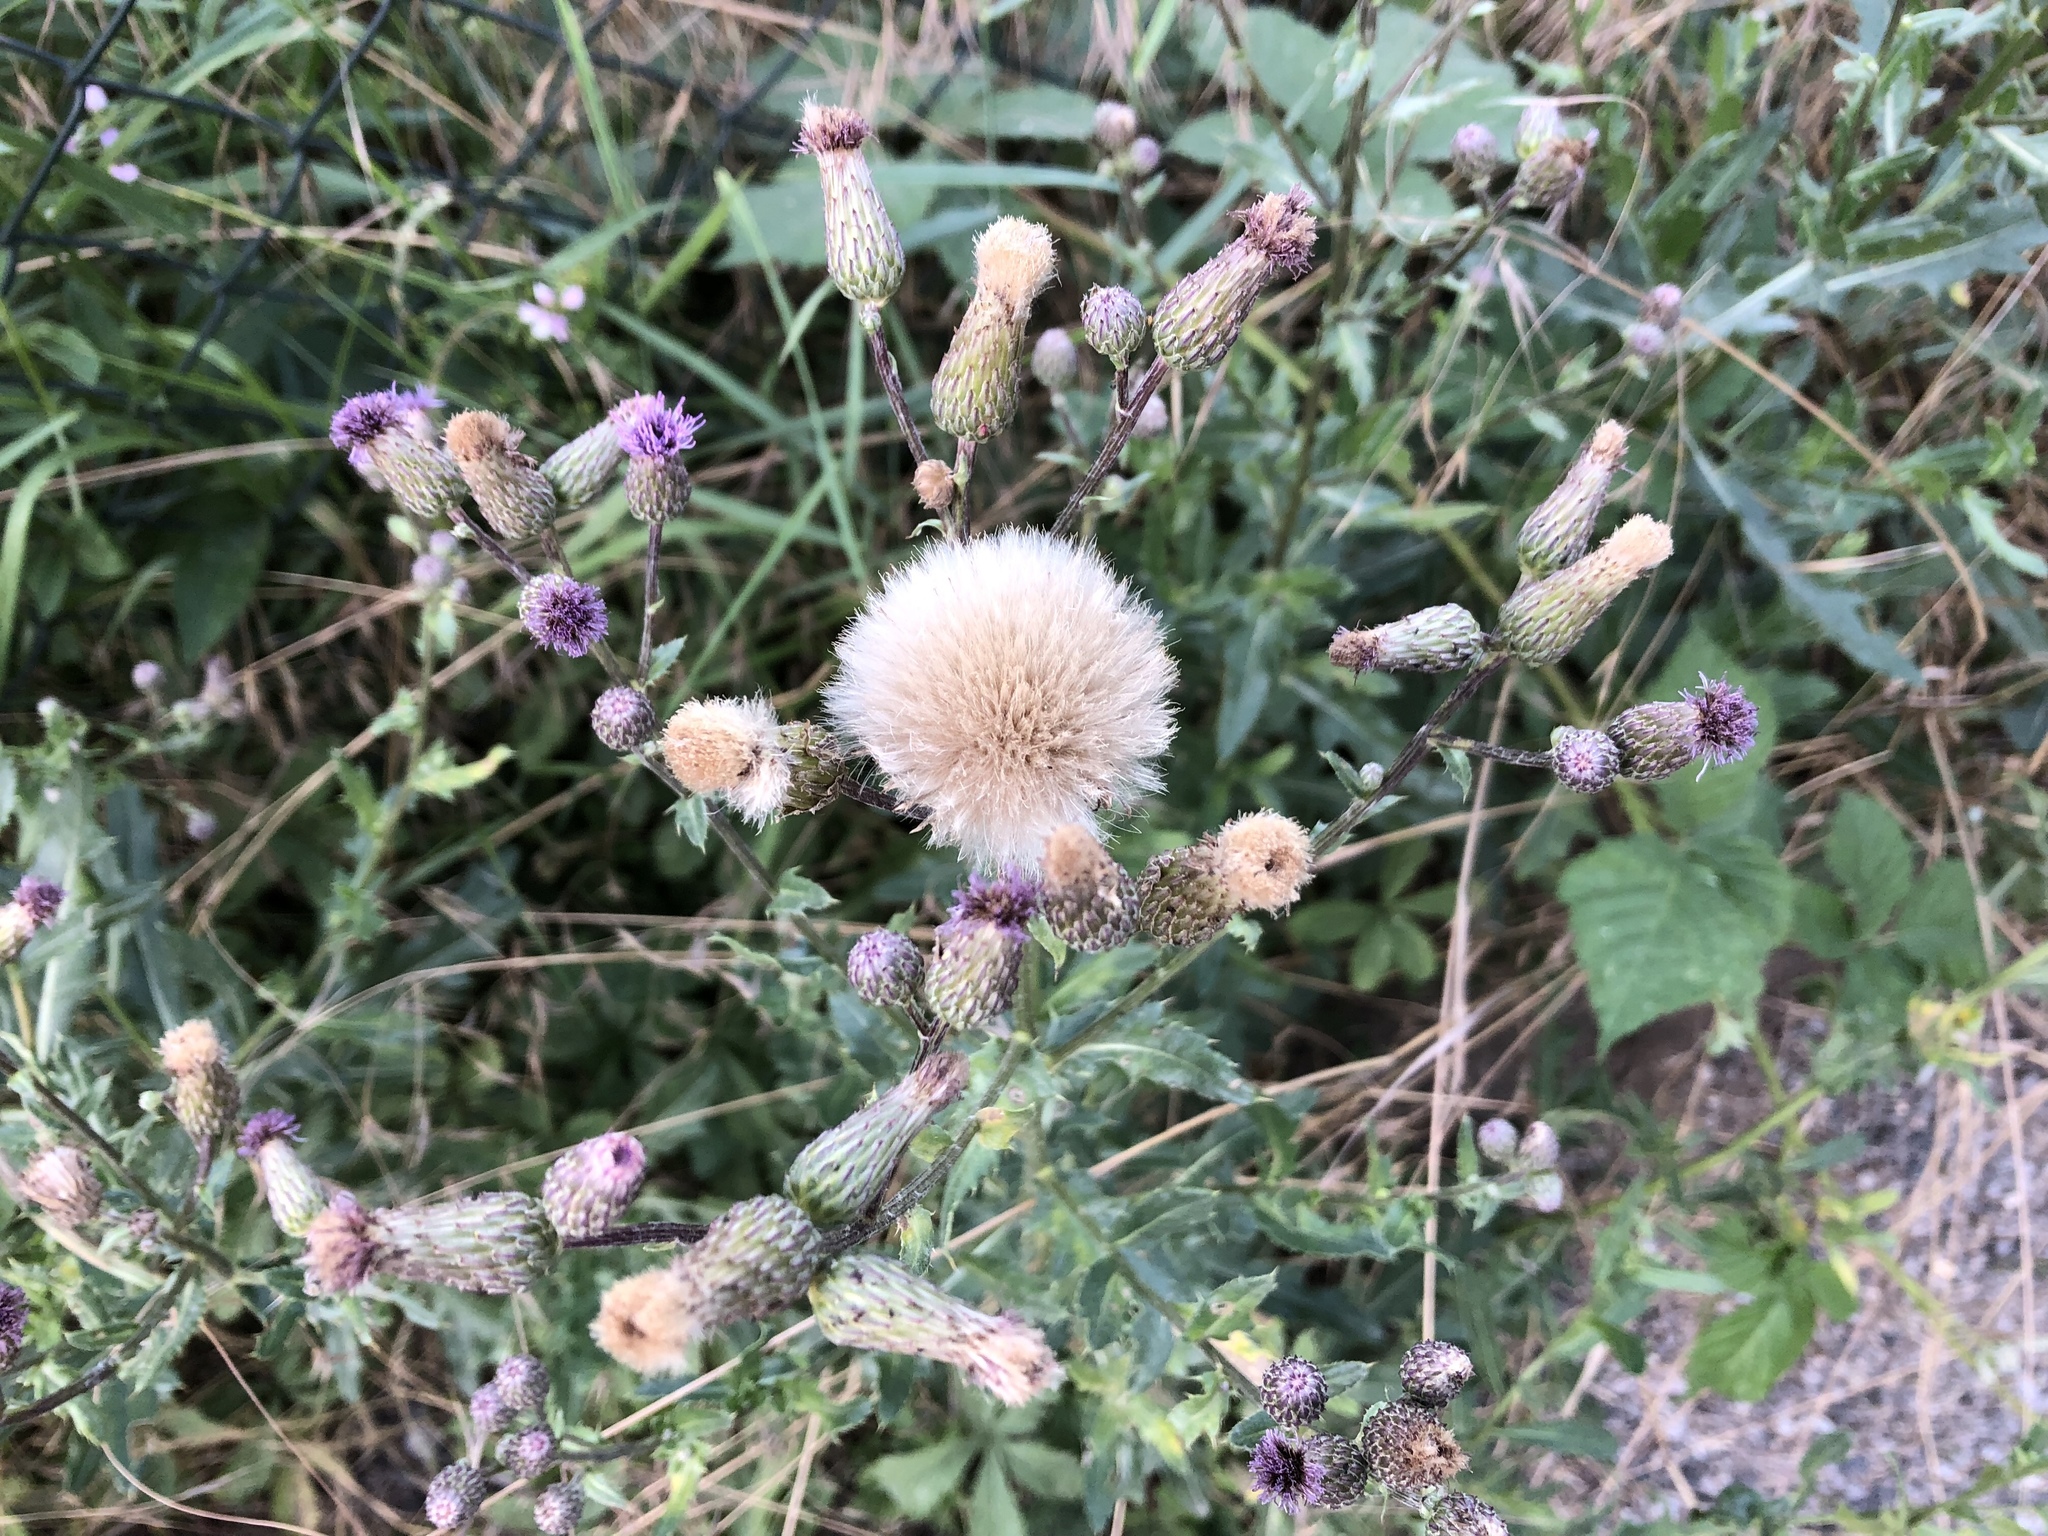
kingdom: Plantae
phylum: Tracheophyta
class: Magnoliopsida
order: Asterales
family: Asteraceae
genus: Cirsium
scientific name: Cirsium arvense
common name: Creeping thistle
